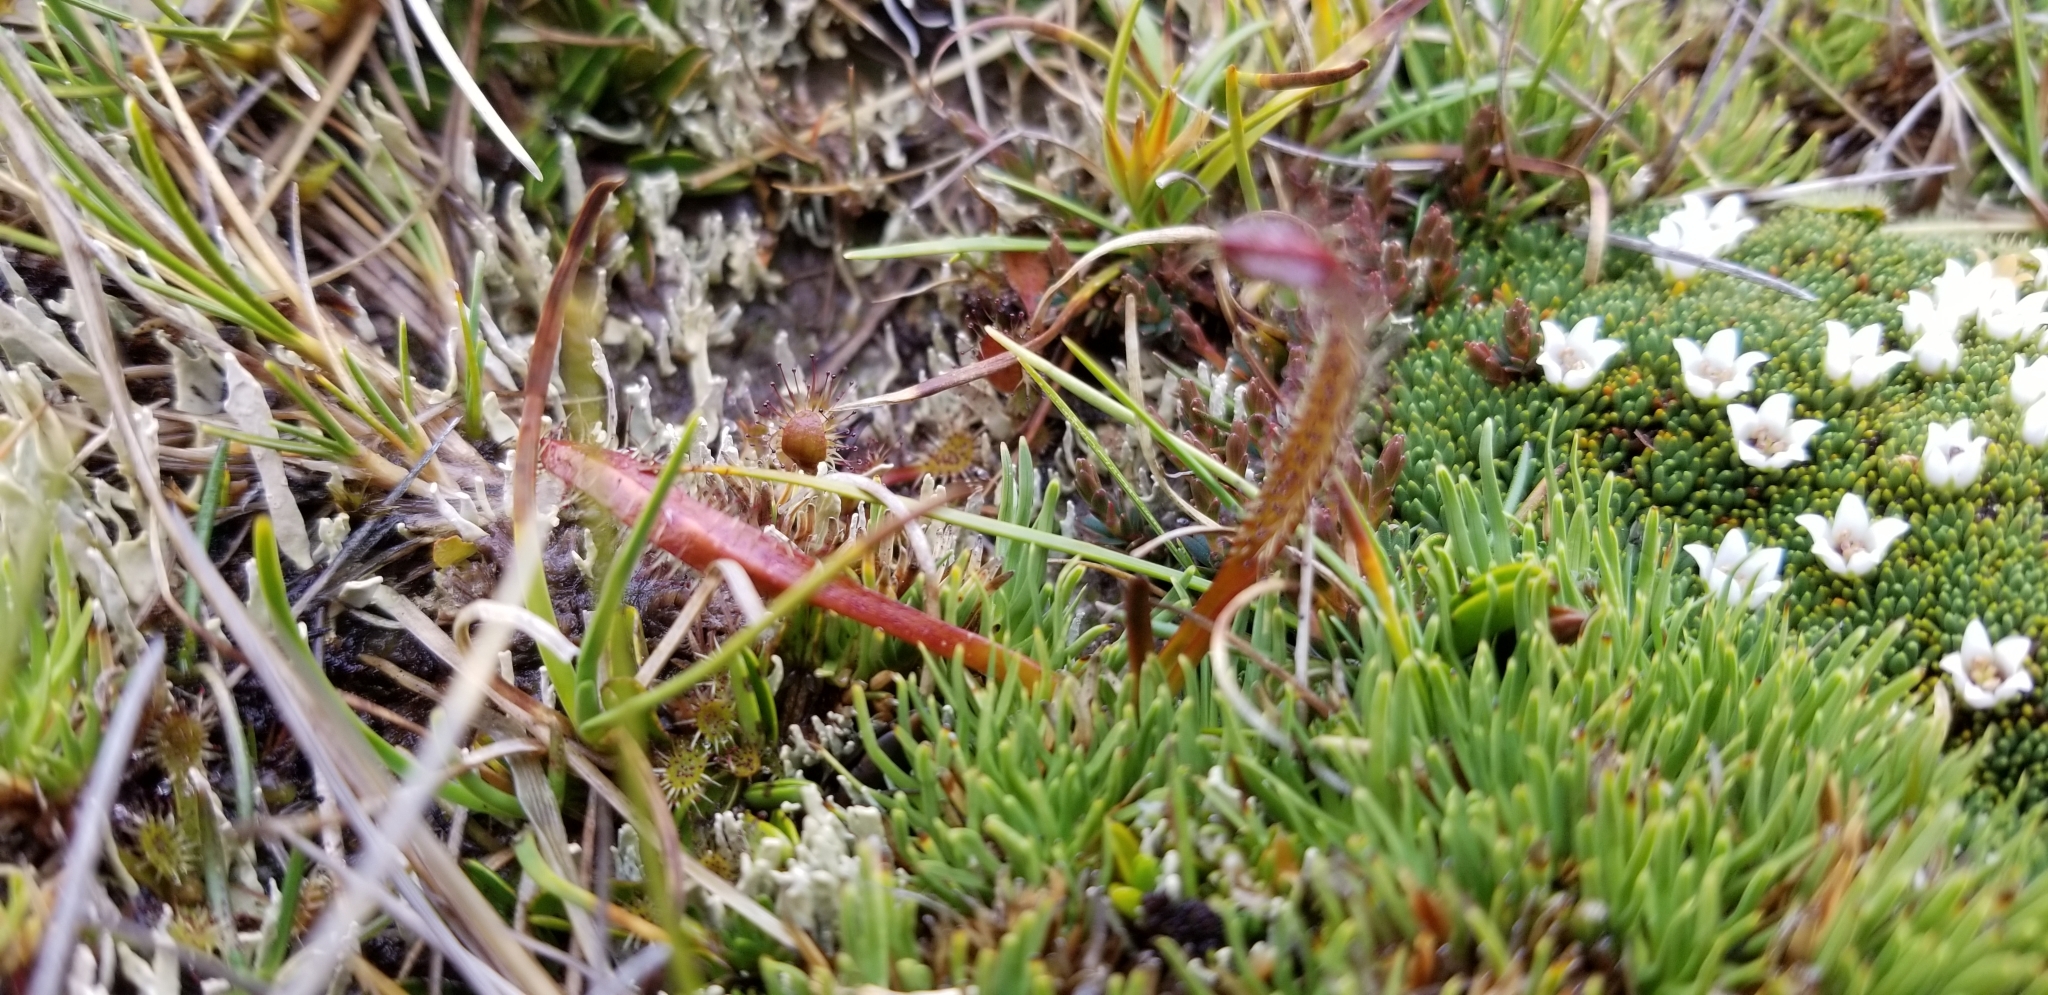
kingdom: Plantae
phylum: Tracheophyta
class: Magnoliopsida
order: Caryophyllales
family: Droseraceae
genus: Drosera
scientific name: Drosera arcturi
